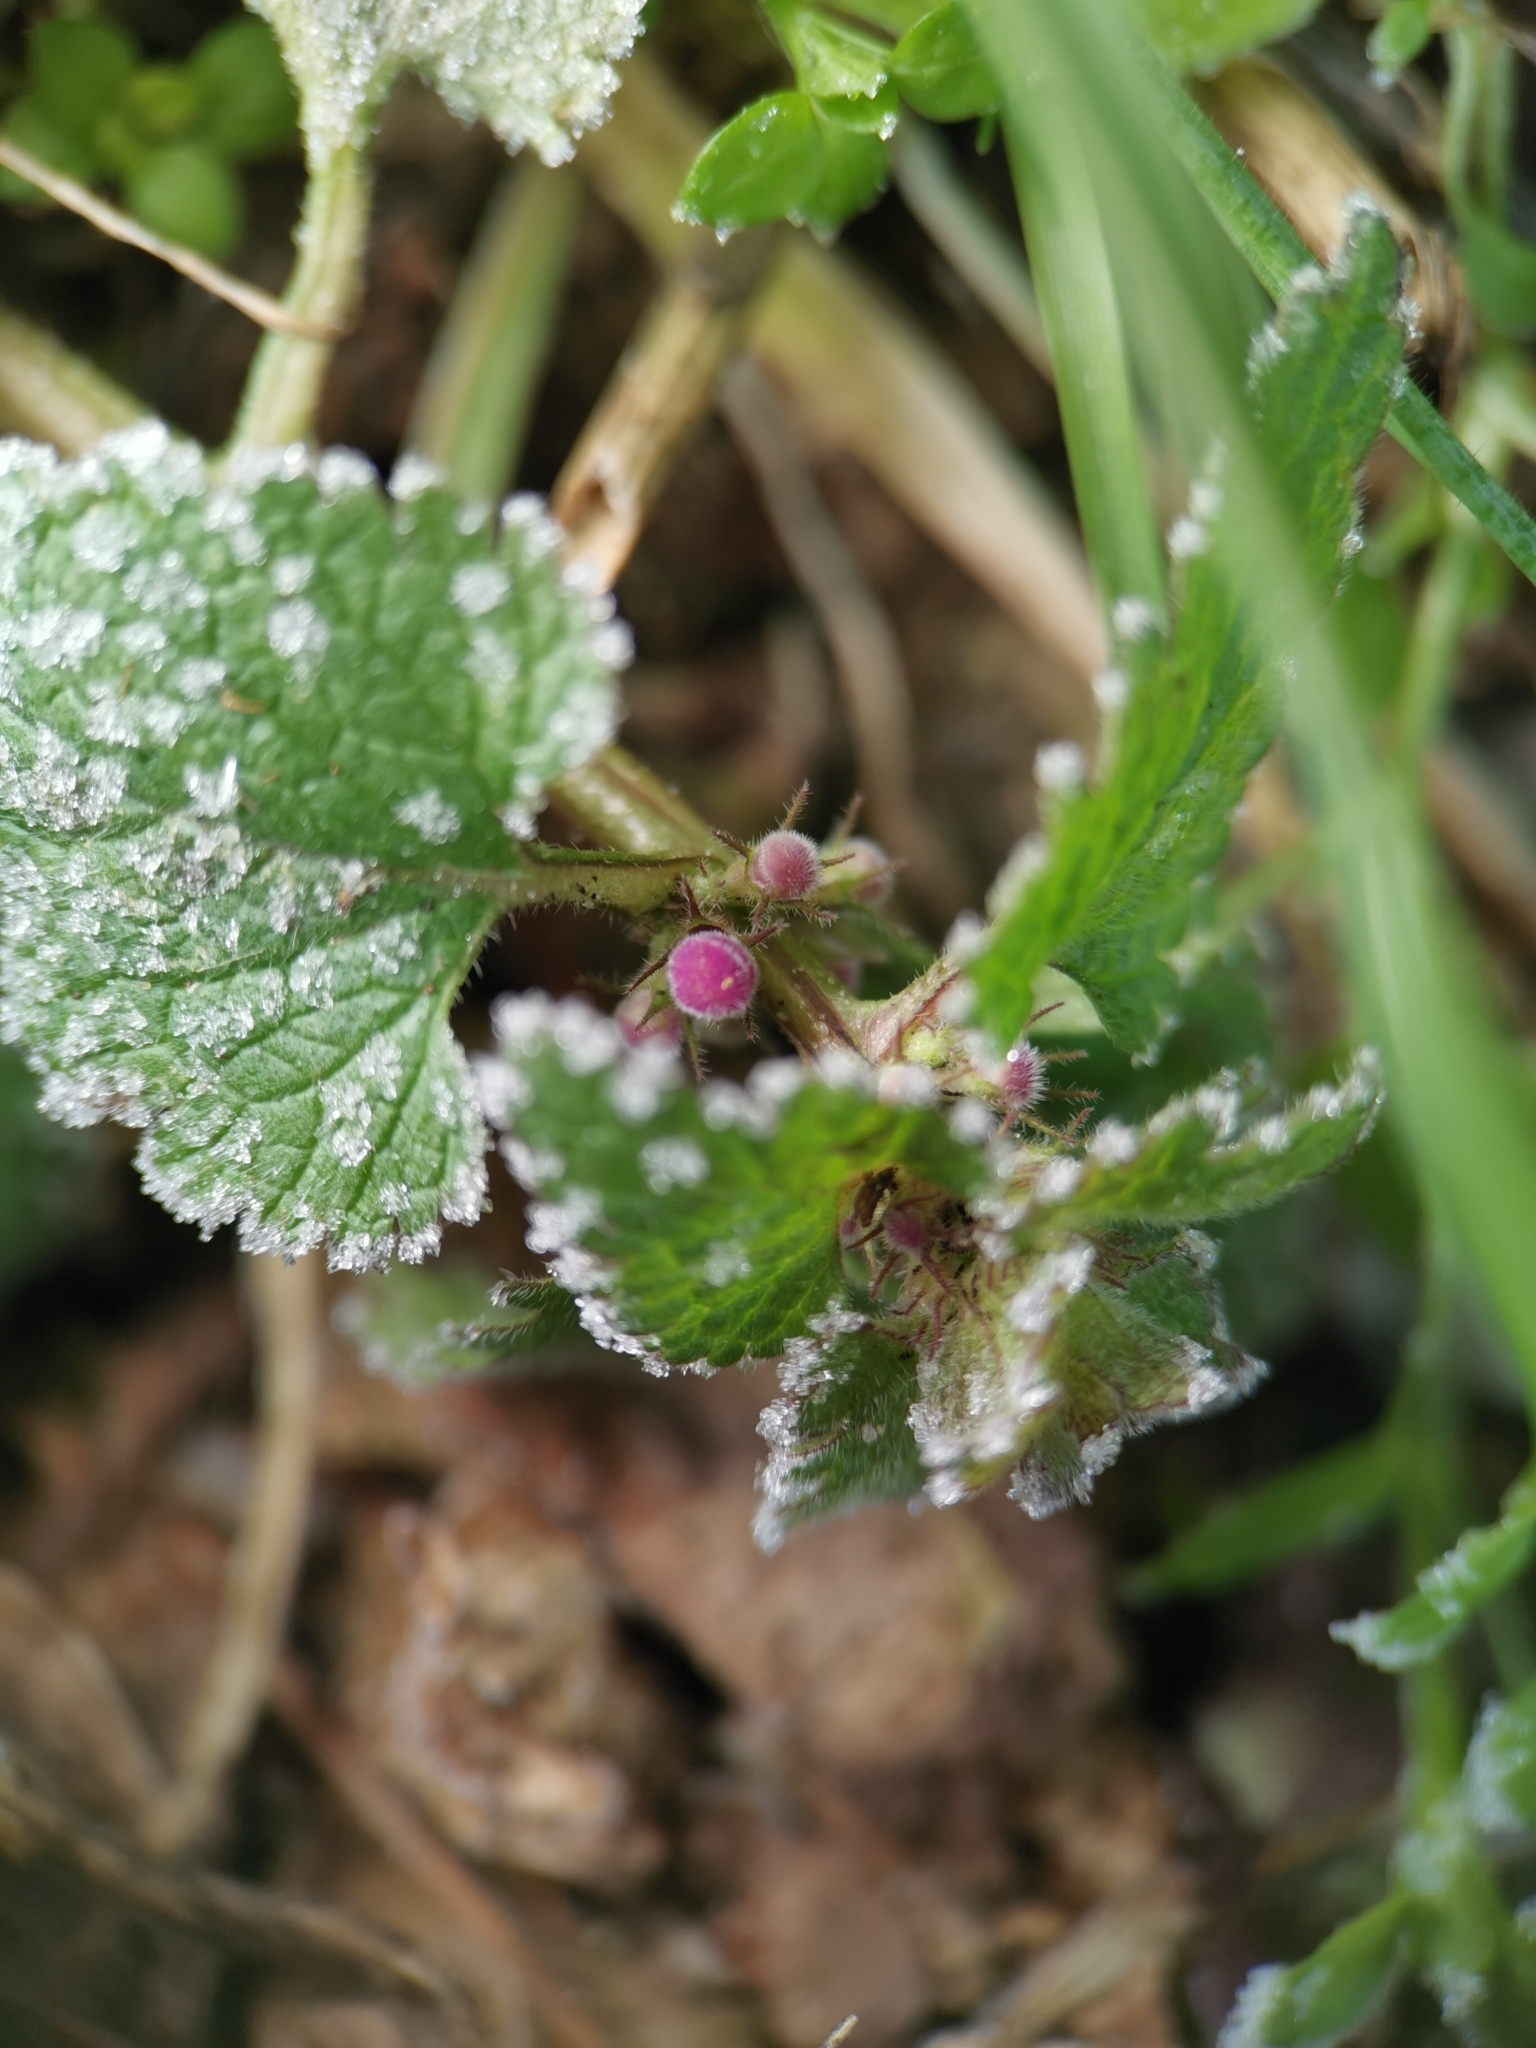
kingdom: Plantae
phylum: Tracheophyta
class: Magnoliopsida
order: Lamiales
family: Lamiaceae
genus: Lamium
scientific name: Lamium purpureum
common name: Red dead-nettle
